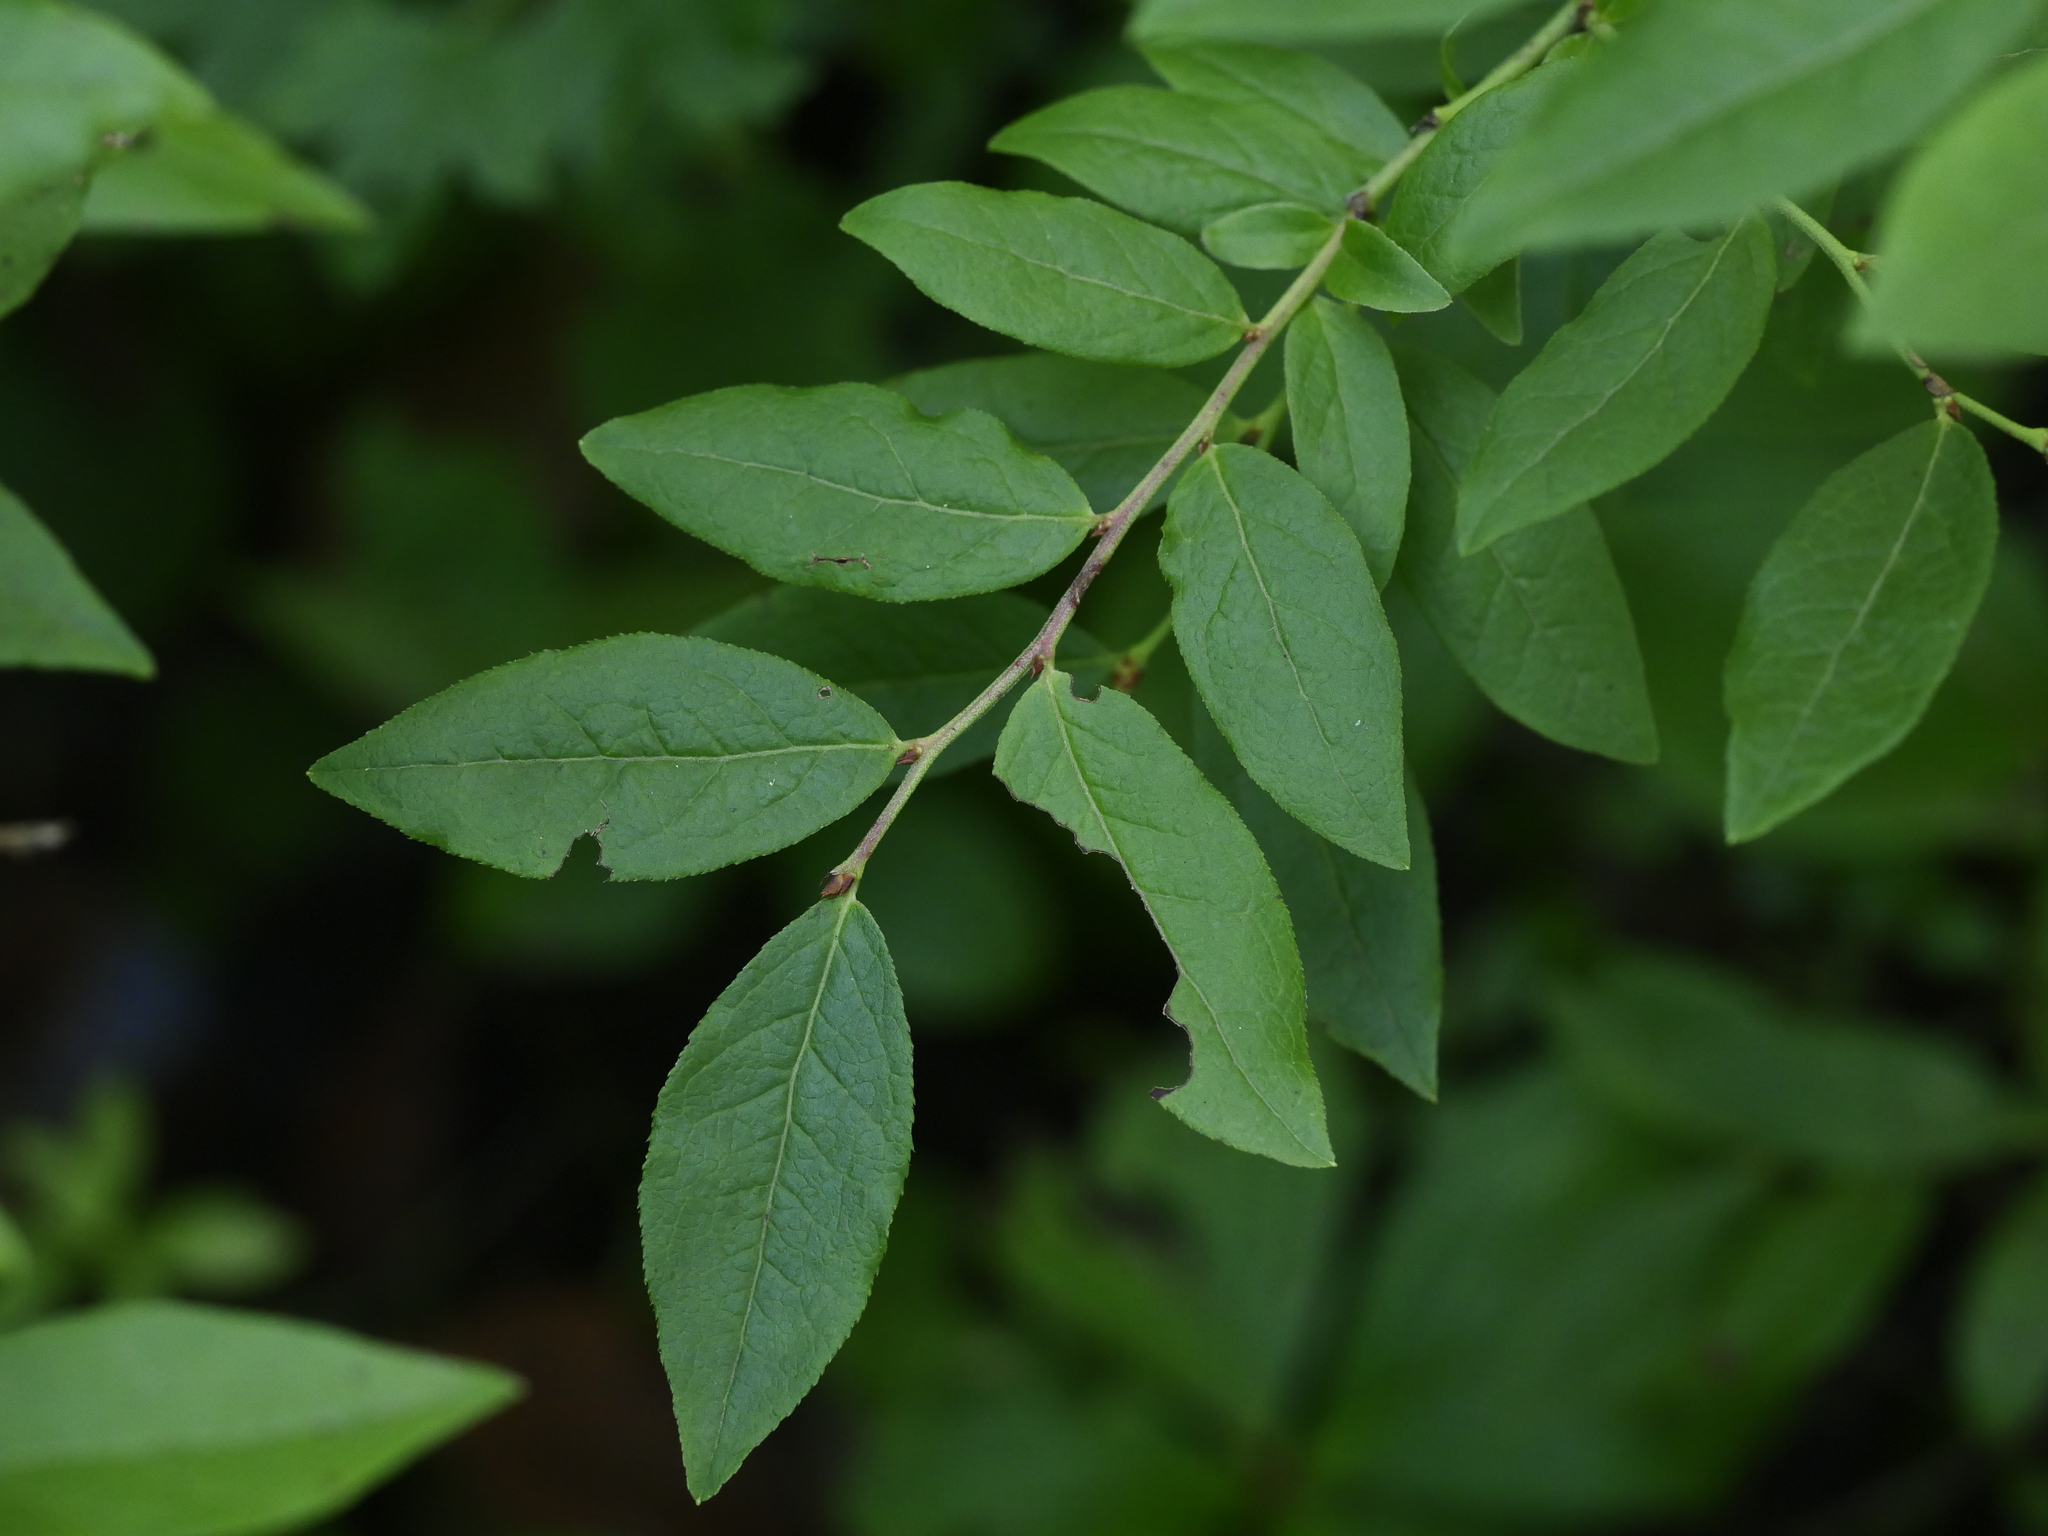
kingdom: Plantae
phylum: Tracheophyta
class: Magnoliopsida
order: Ericales
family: Ericaceae
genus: Vaccinium
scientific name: Vaccinium angustifolium
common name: Early lowbush blueberry
